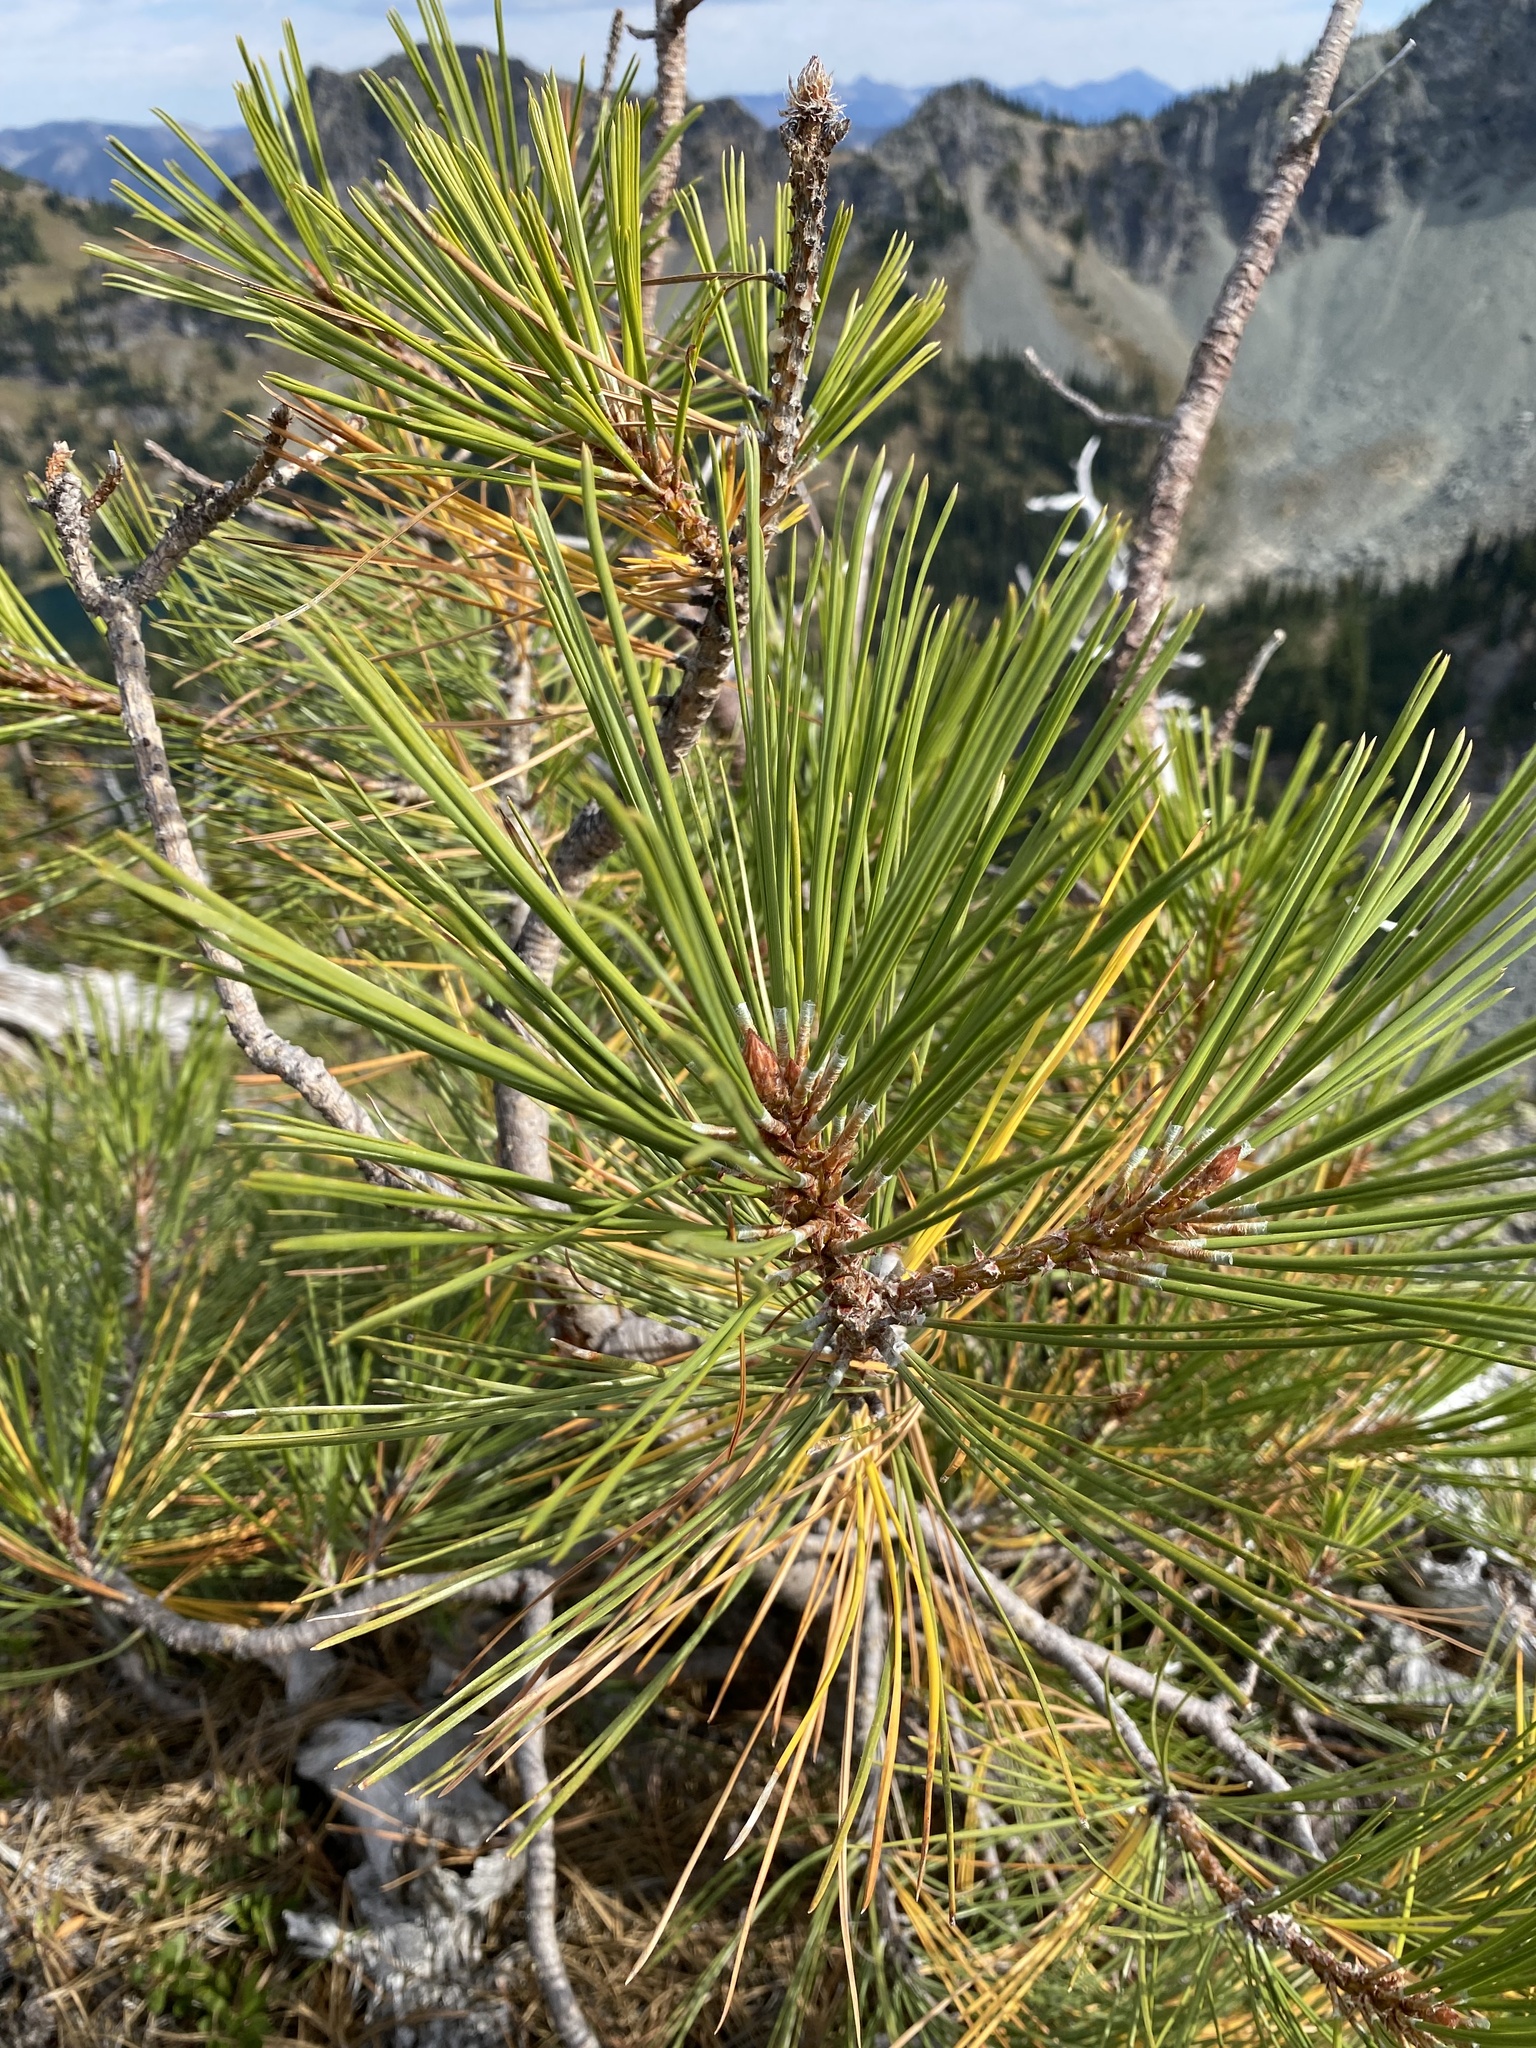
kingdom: Plantae
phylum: Tracheophyta
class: Pinopsida
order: Pinales
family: Pinaceae
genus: Pinus
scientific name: Pinus ponderosa
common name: Western yellow-pine
